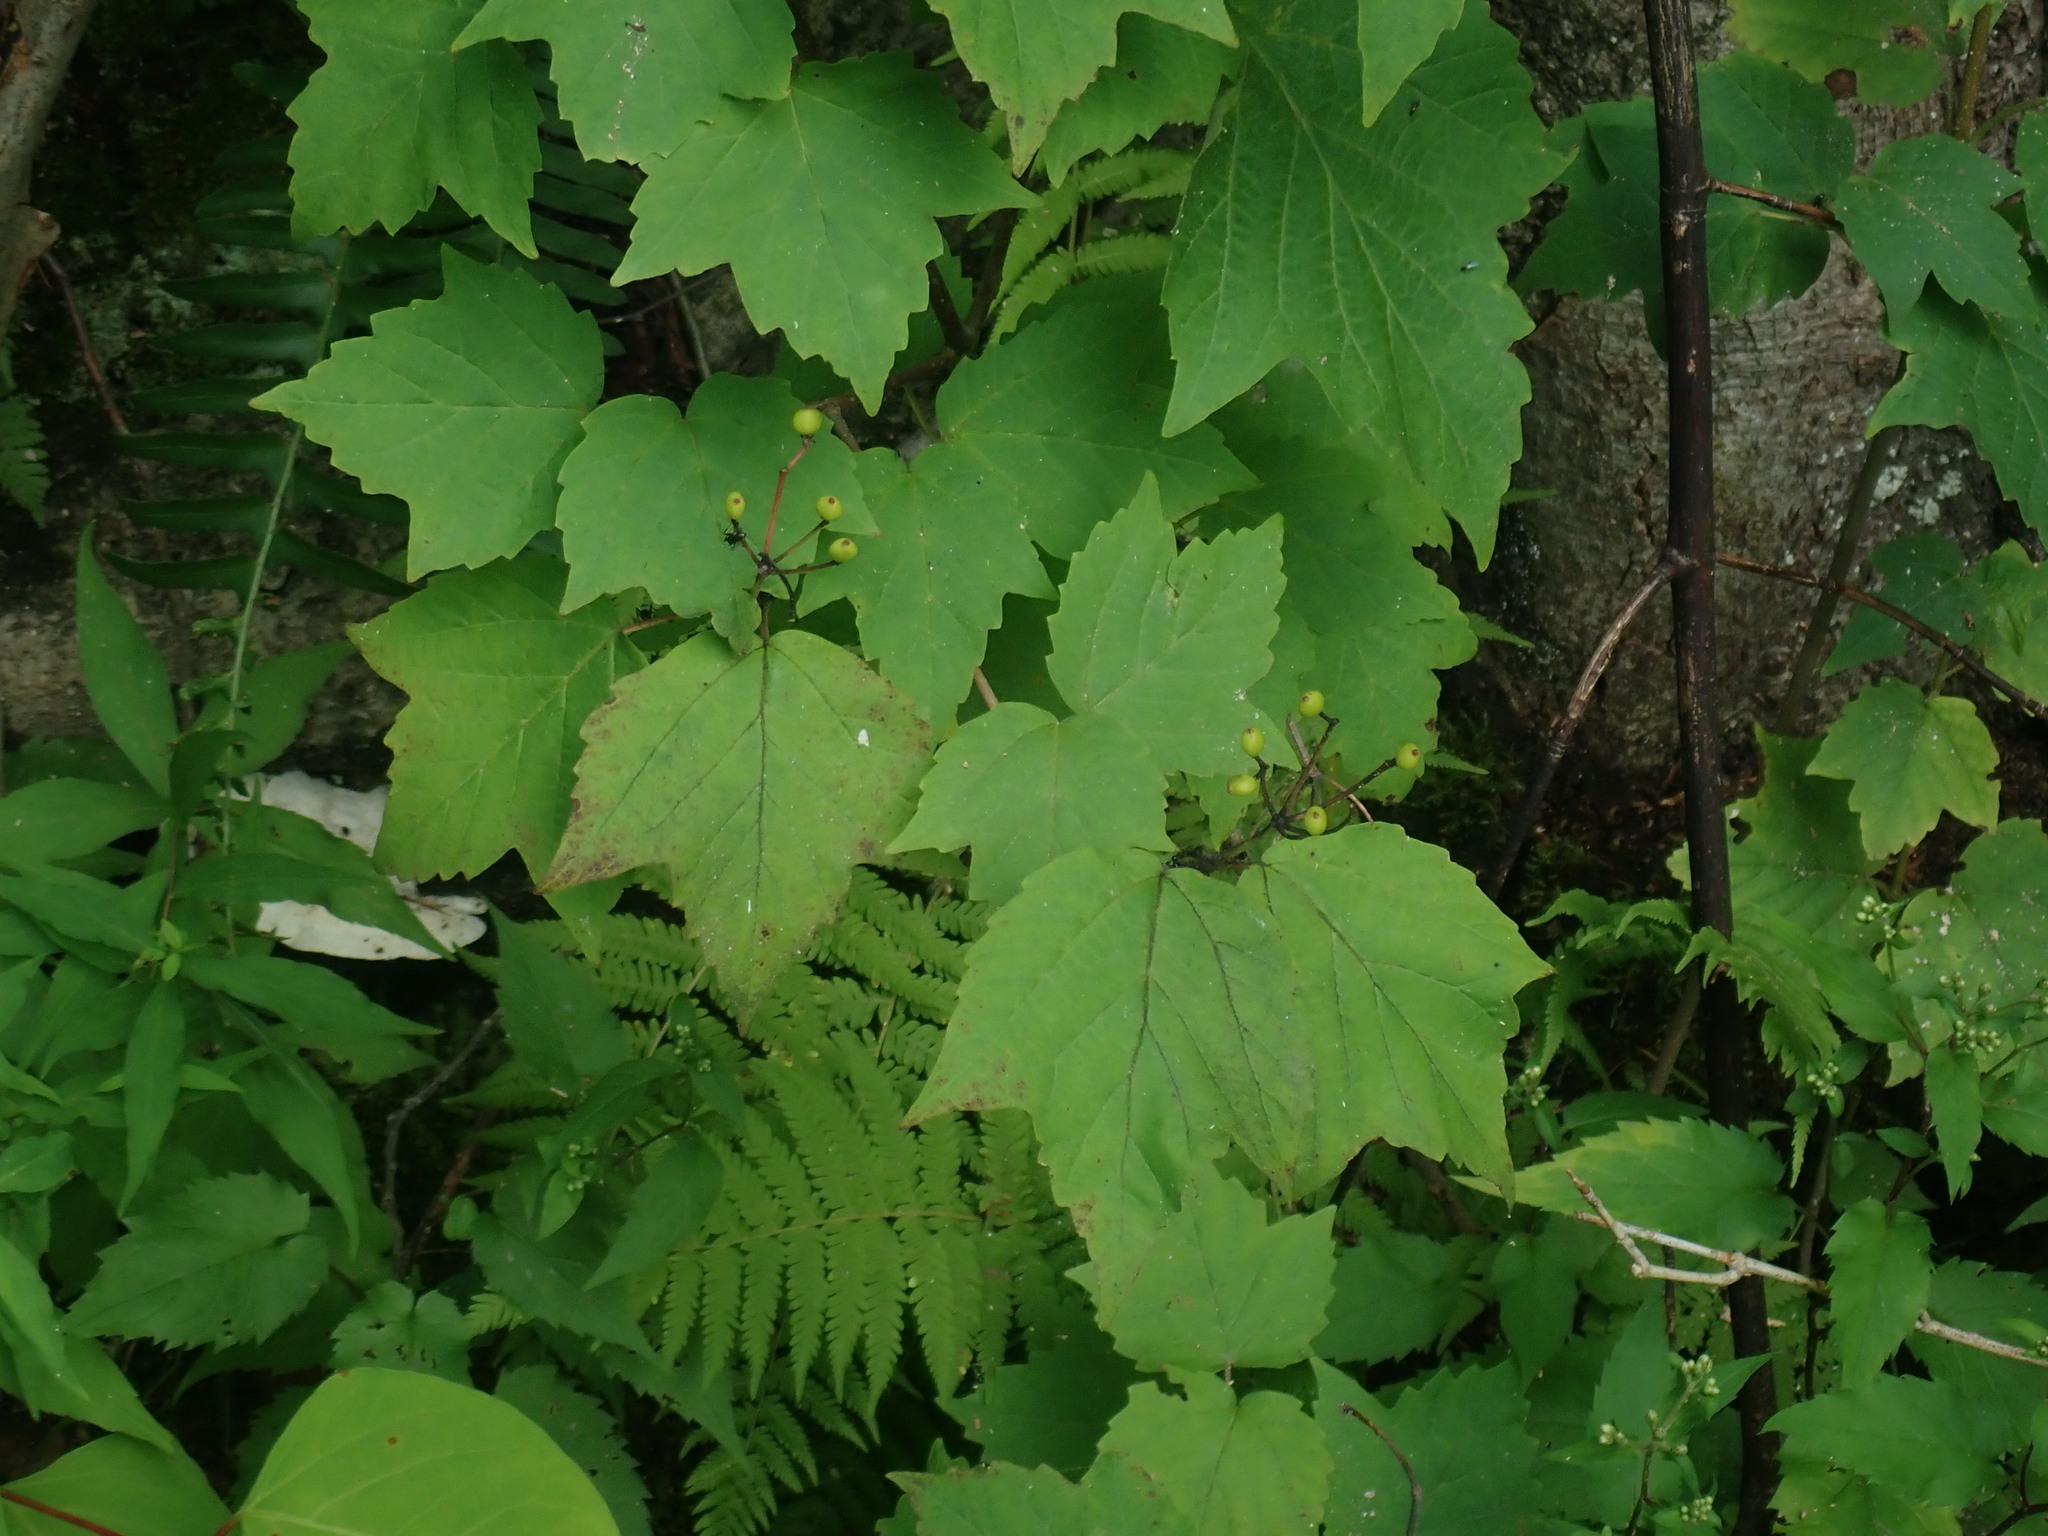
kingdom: Plantae
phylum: Tracheophyta
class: Magnoliopsida
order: Dipsacales
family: Viburnaceae
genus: Viburnum
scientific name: Viburnum acerifolium
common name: Dockmackie
